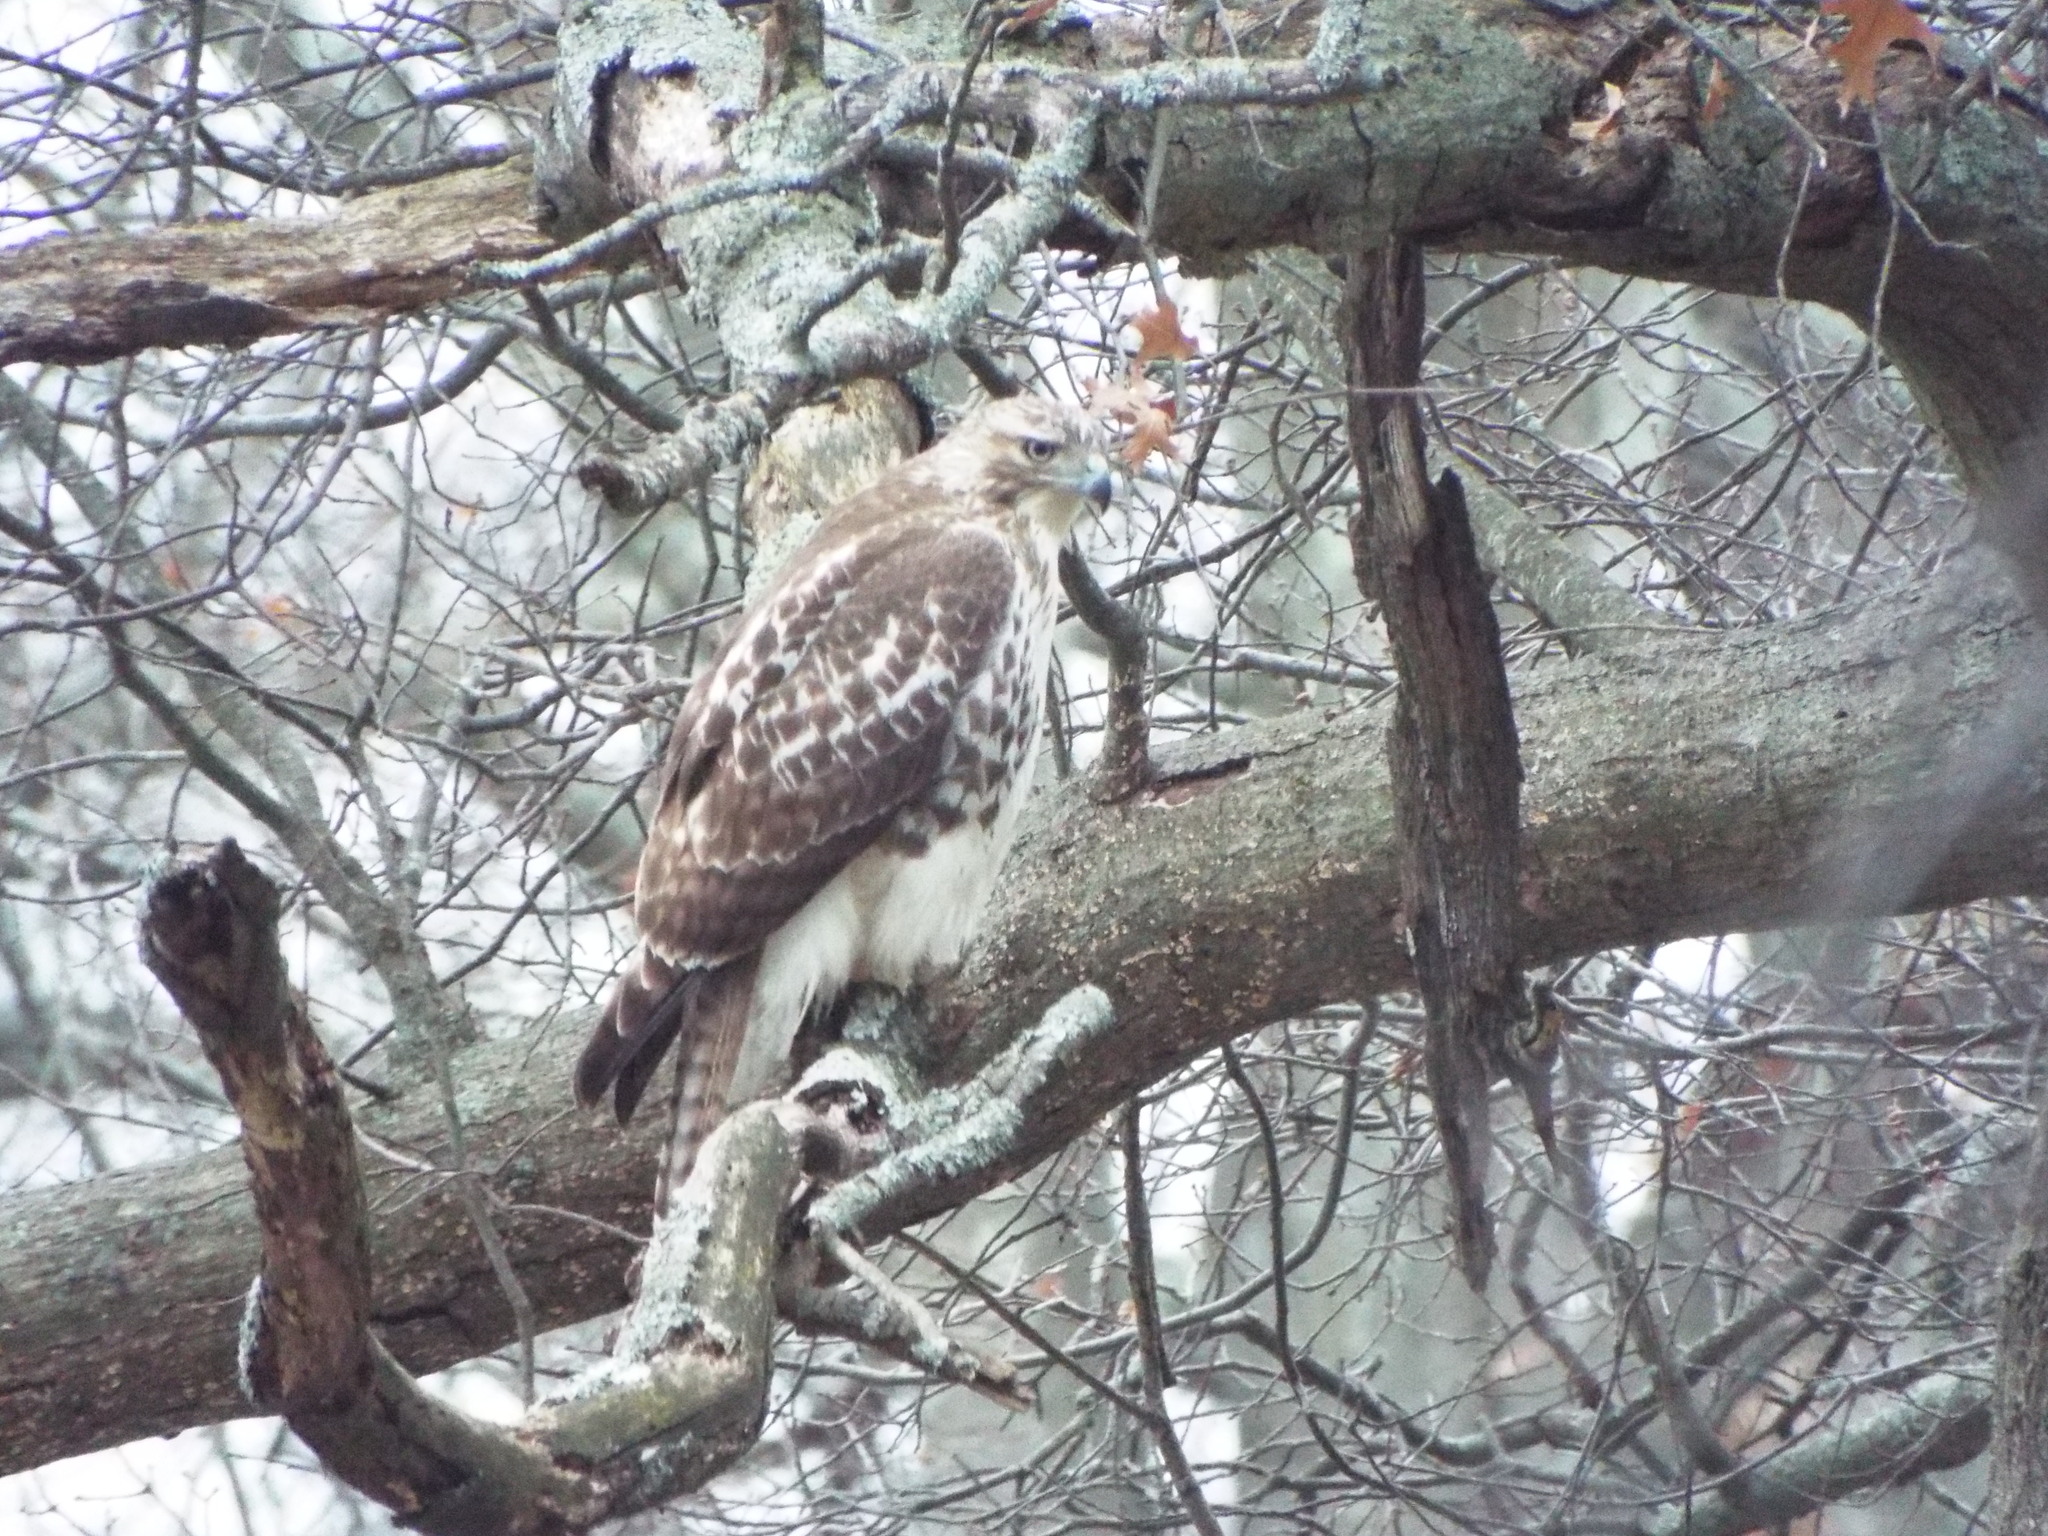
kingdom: Animalia
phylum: Chordata
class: Aves
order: Accipitriformes
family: Accipitridae
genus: Buteo
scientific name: Buteo jamaicensis
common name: Red-tailed hawk
